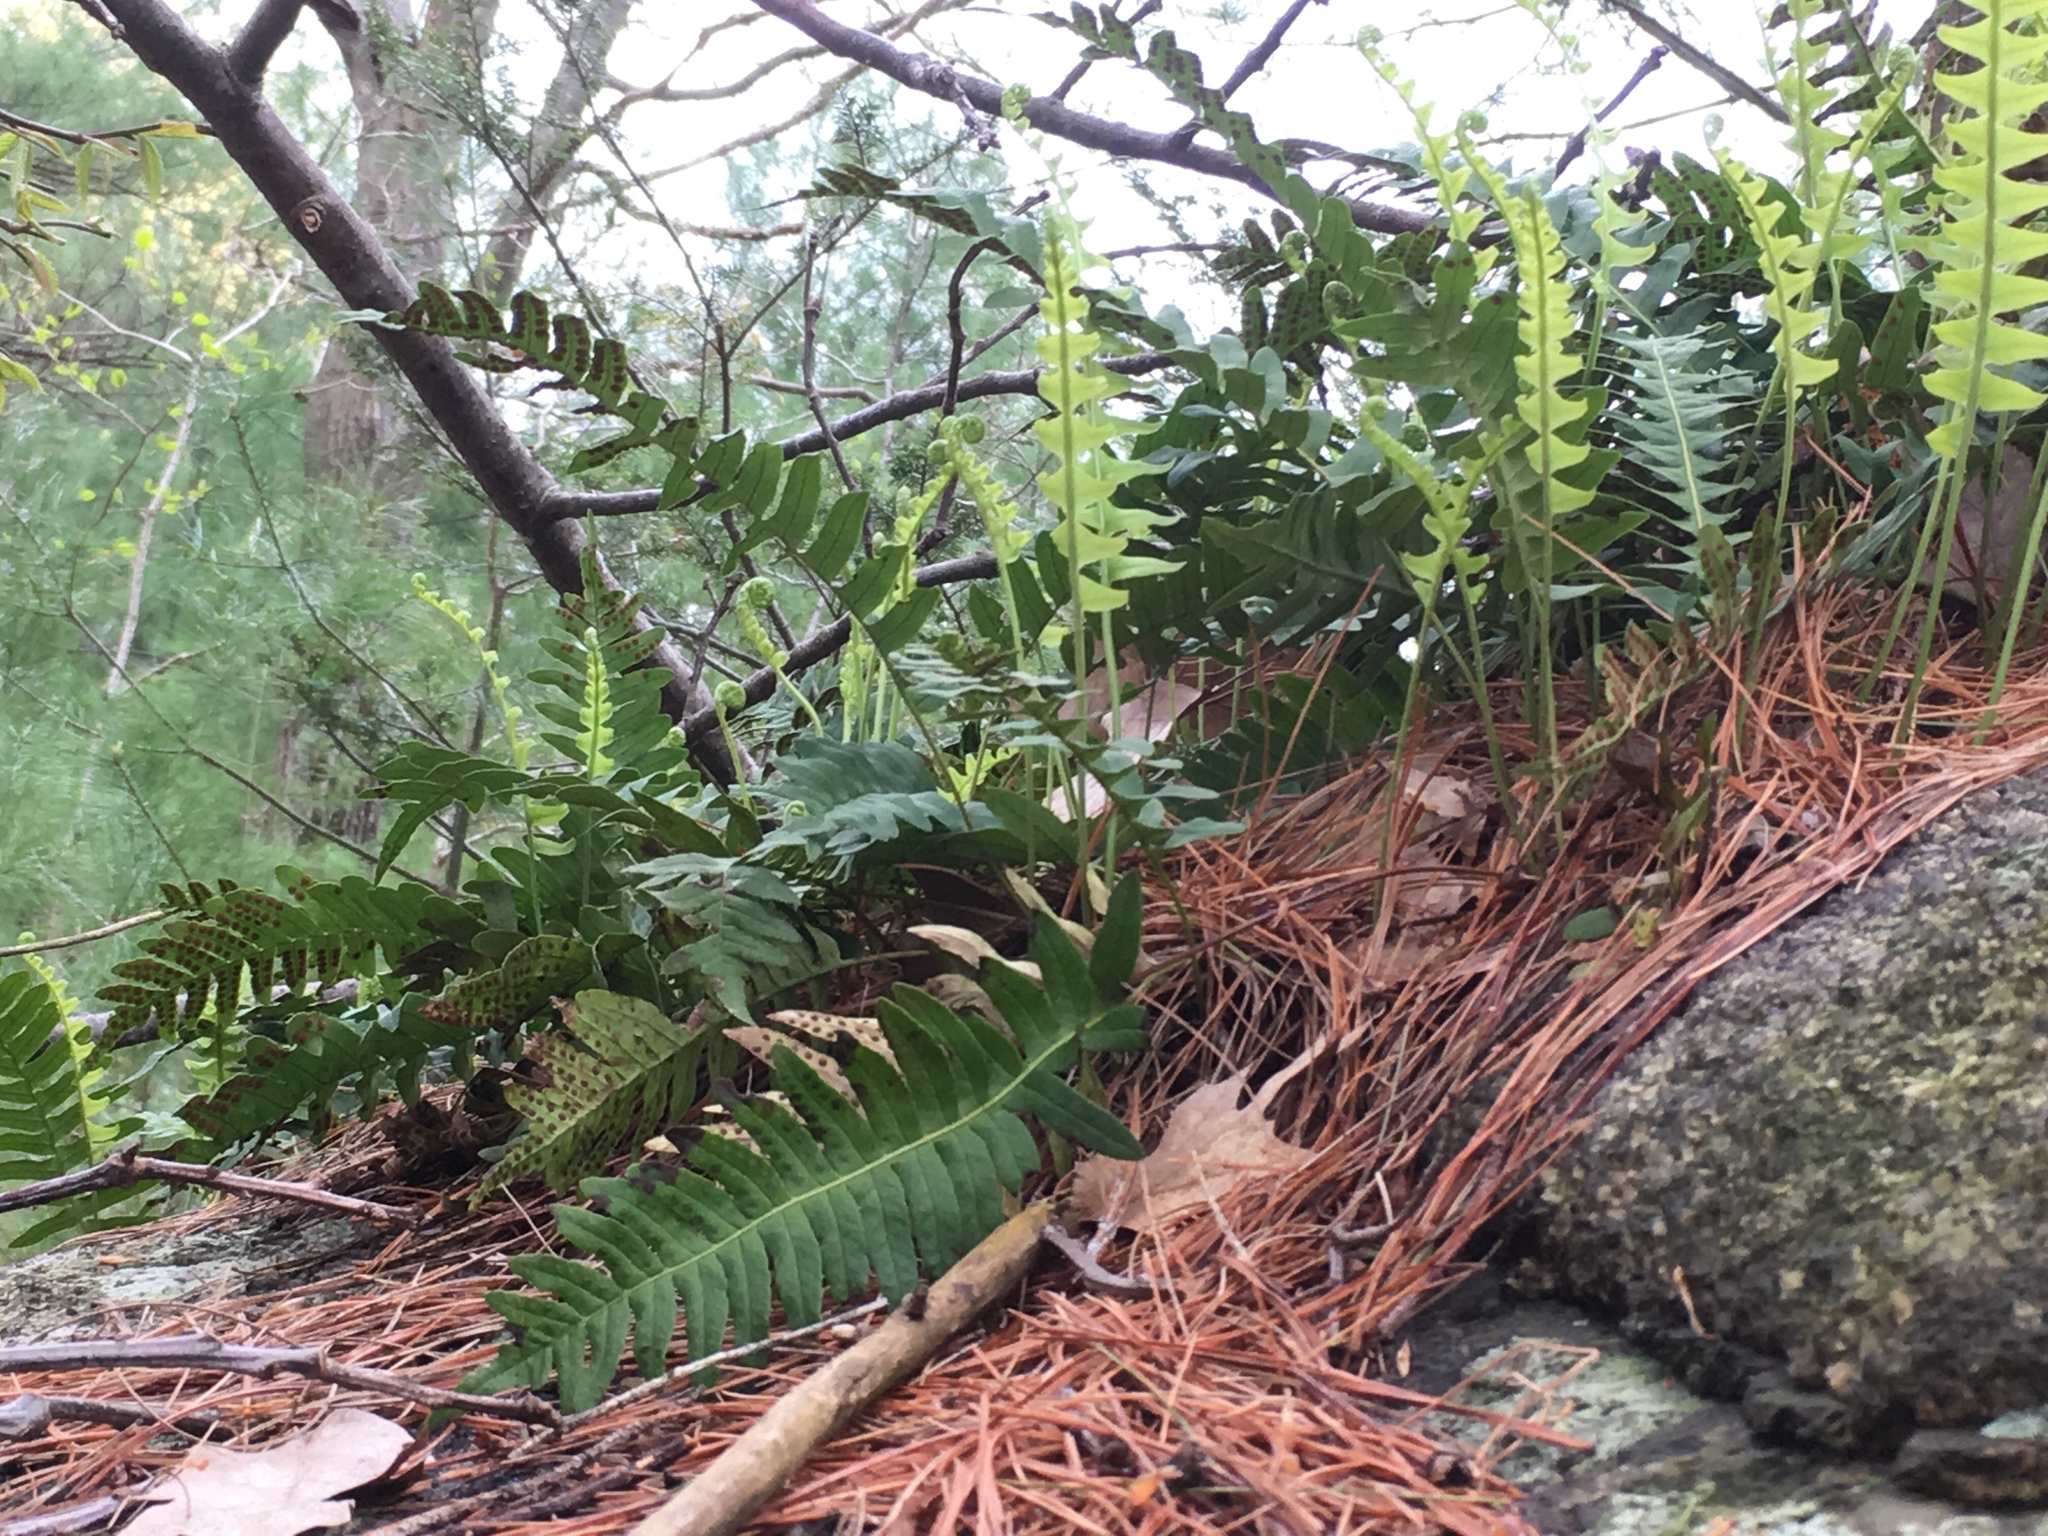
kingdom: Plantae
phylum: Tracheophyta
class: Polypodiopsida
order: Polypodiales
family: Polypodiaceae
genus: Polypodium
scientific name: Polypodium virginianum
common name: American wall fern
